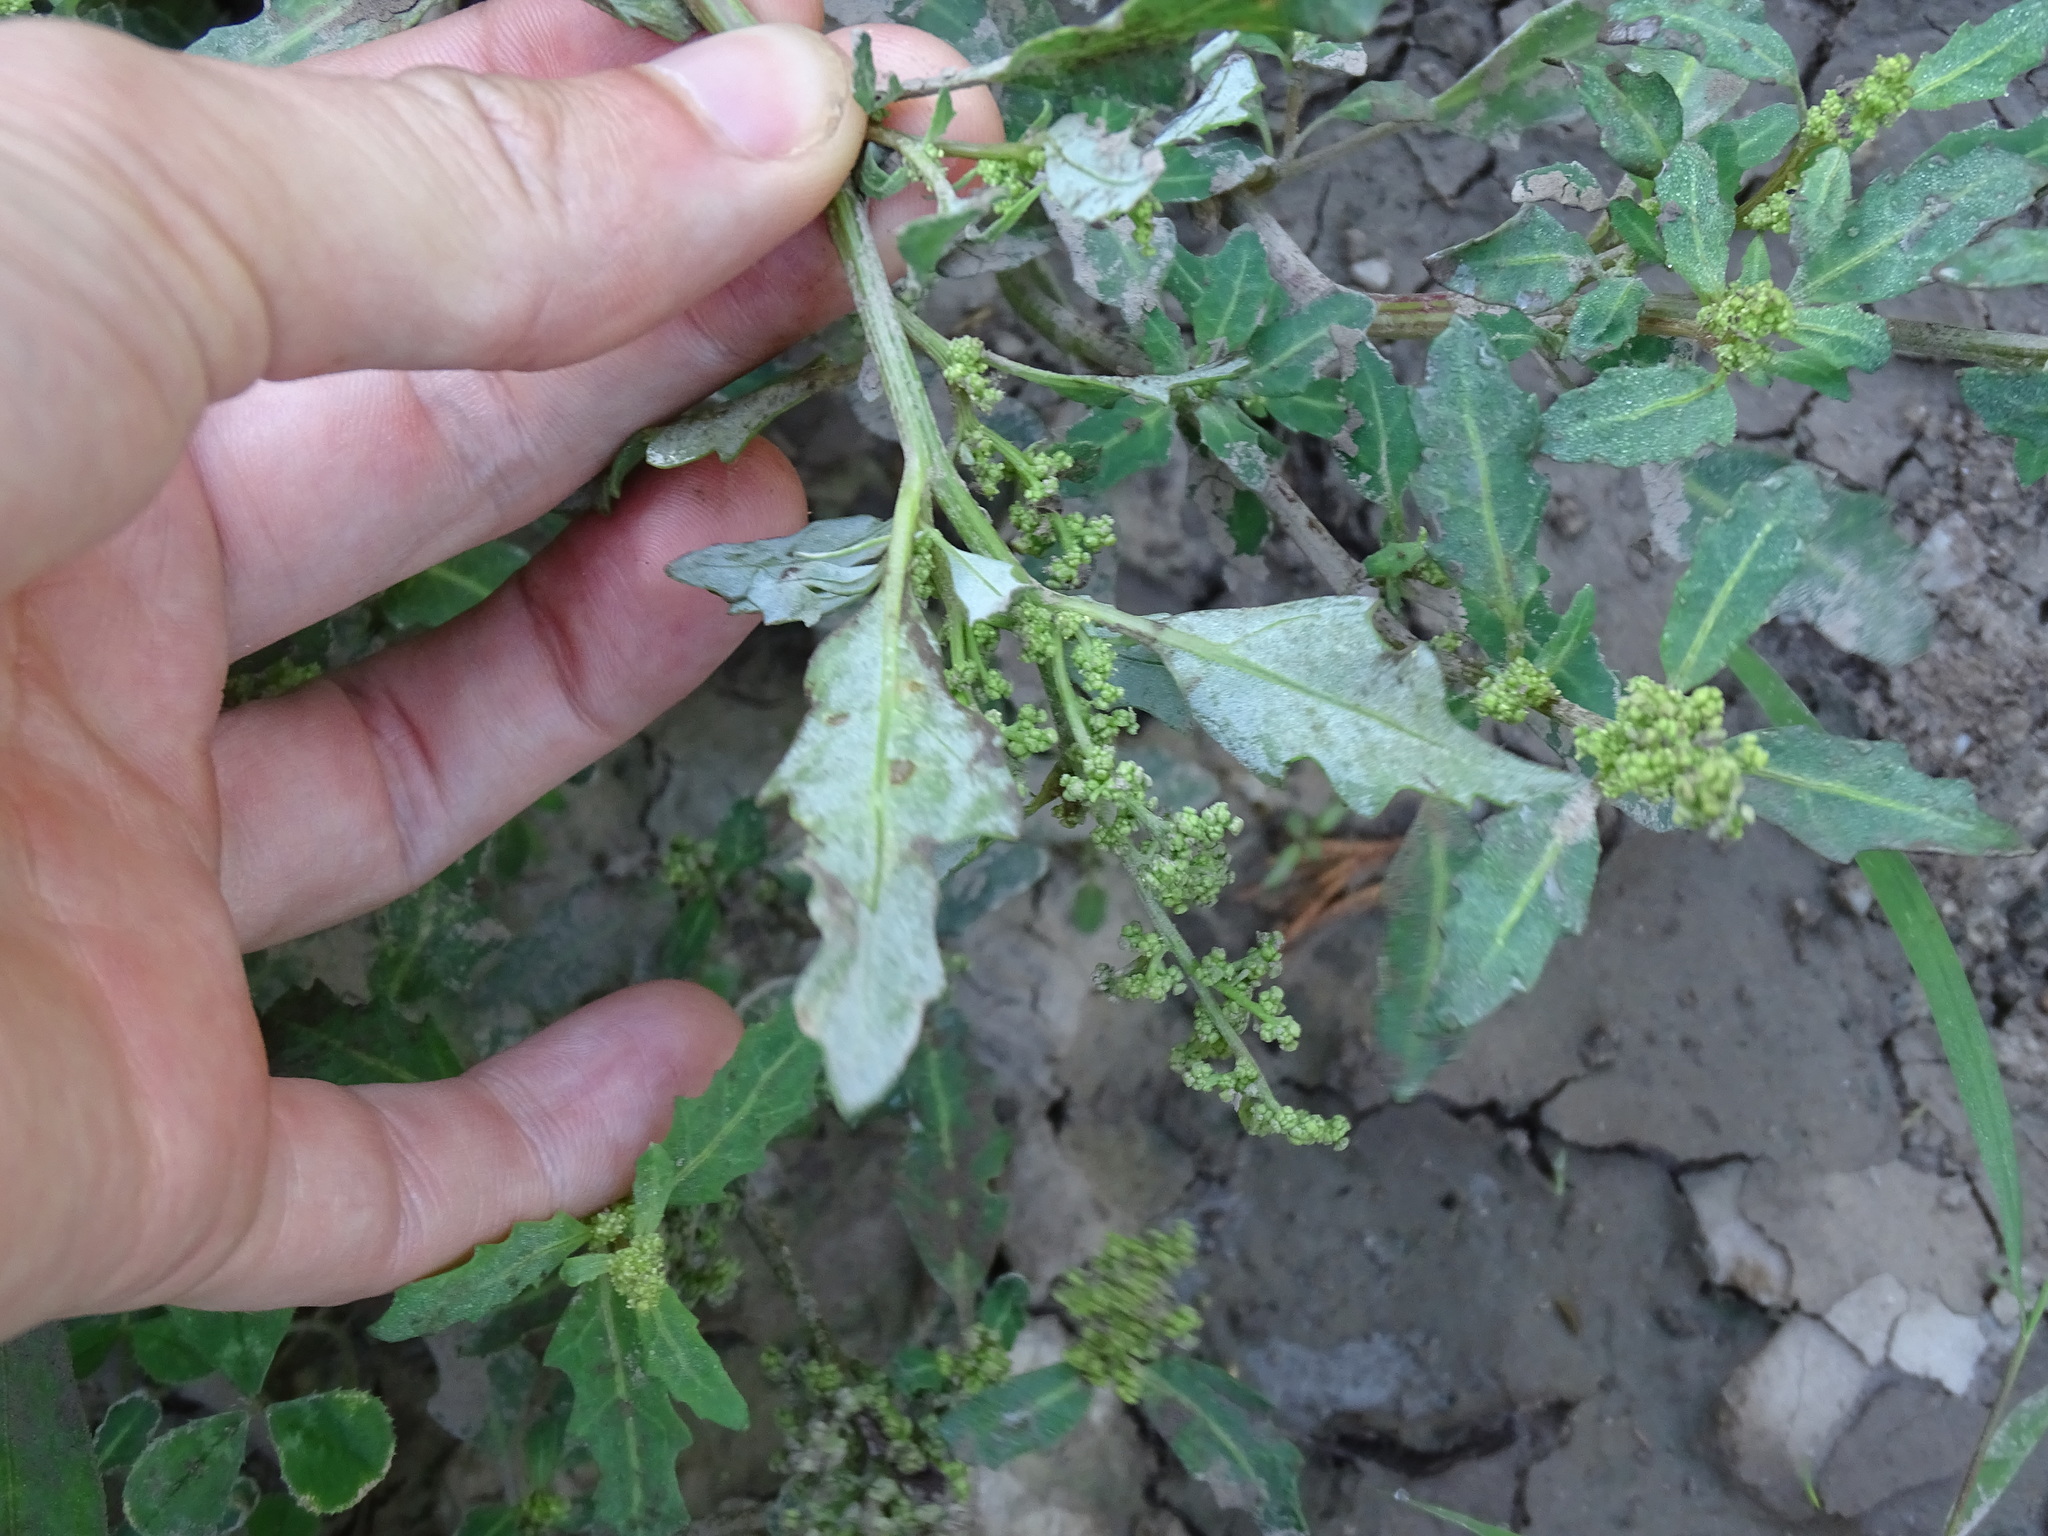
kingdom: Plantae
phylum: Tracheophyta
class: Magnoliopsida
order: Caryophyllales
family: Amaranthaceae
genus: Oxybasis
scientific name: Oxybasis glauca
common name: Glaucous goosefoot
